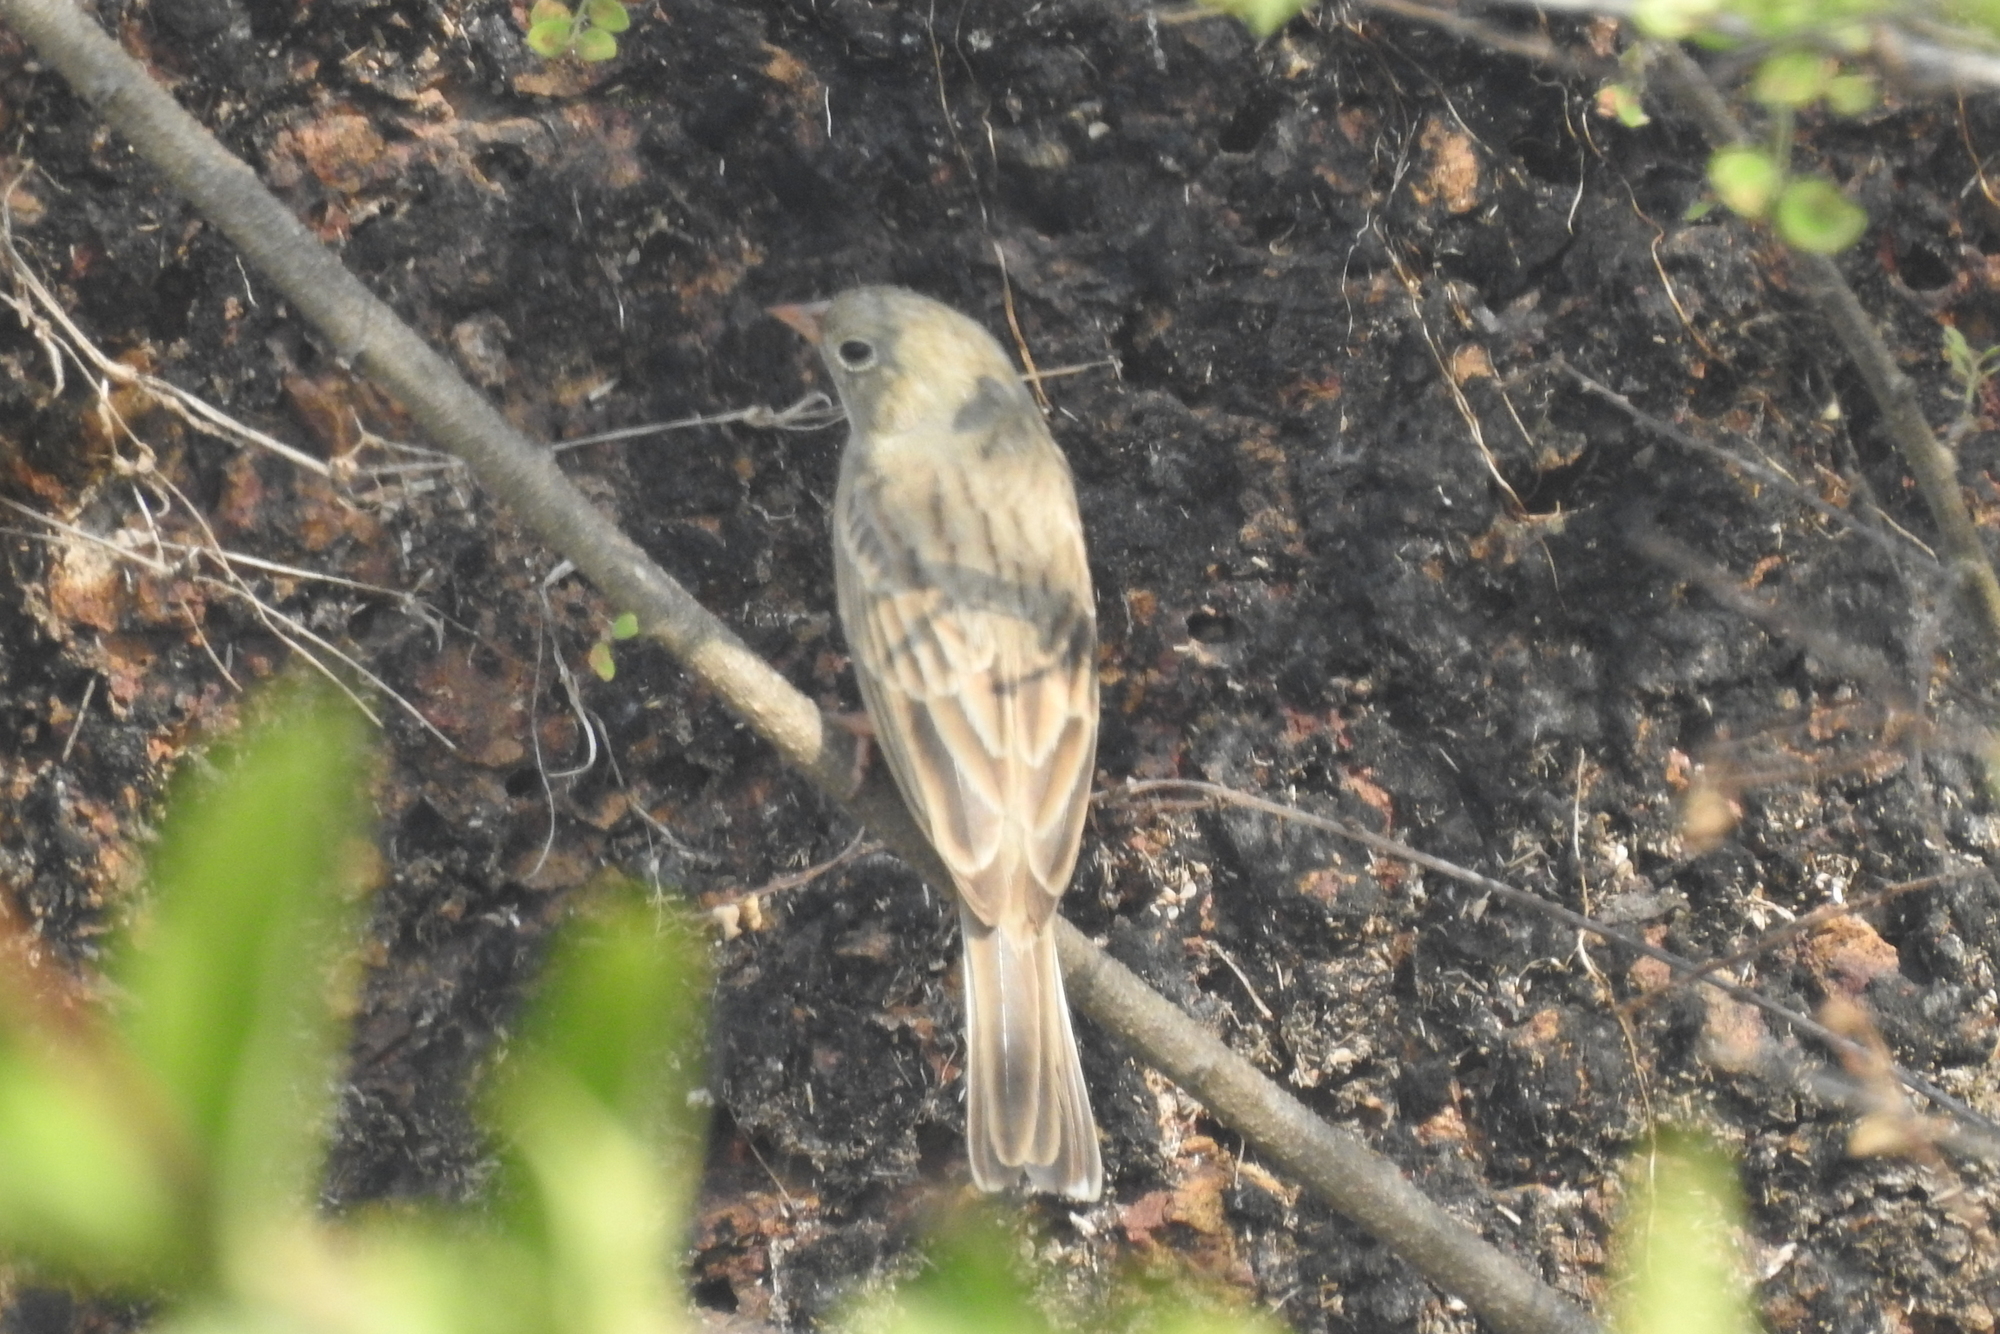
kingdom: Animalia
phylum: Chordata
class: Aves
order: Passeriformes
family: Emberizidae
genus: Emberiza
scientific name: Emberiza buchanani
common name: Grey-necked bunting
